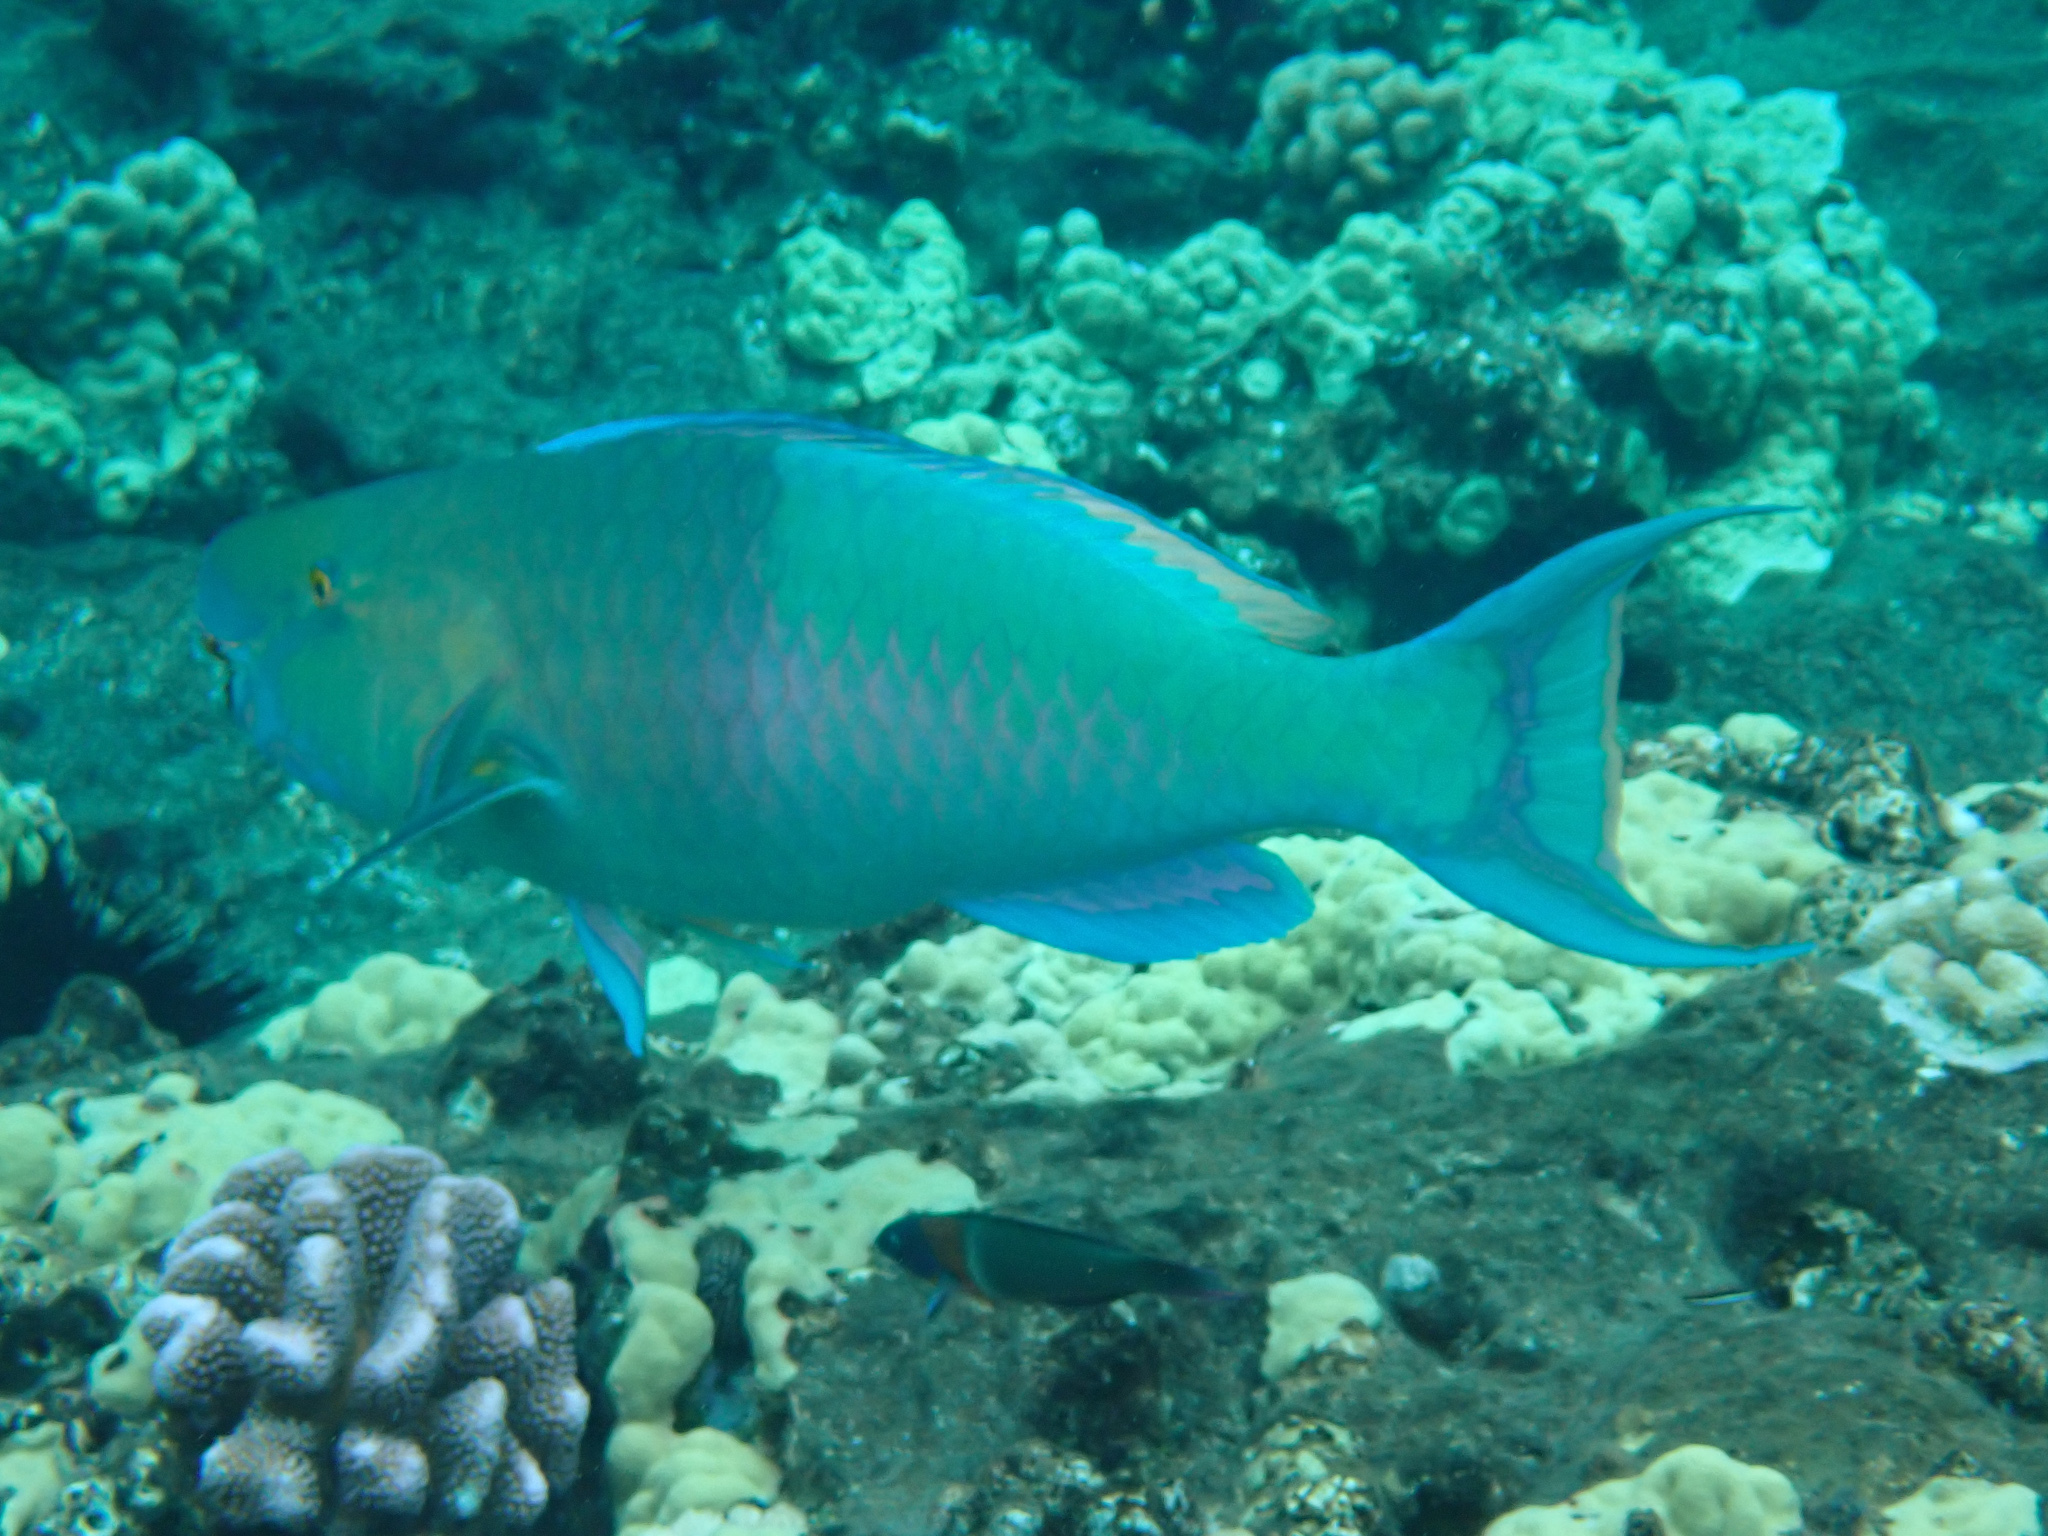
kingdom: Animalia
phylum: Chordata
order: Perciformes
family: Scaridae
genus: Scarus
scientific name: Scarus rubroviolaceus
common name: Ember parrotfish
